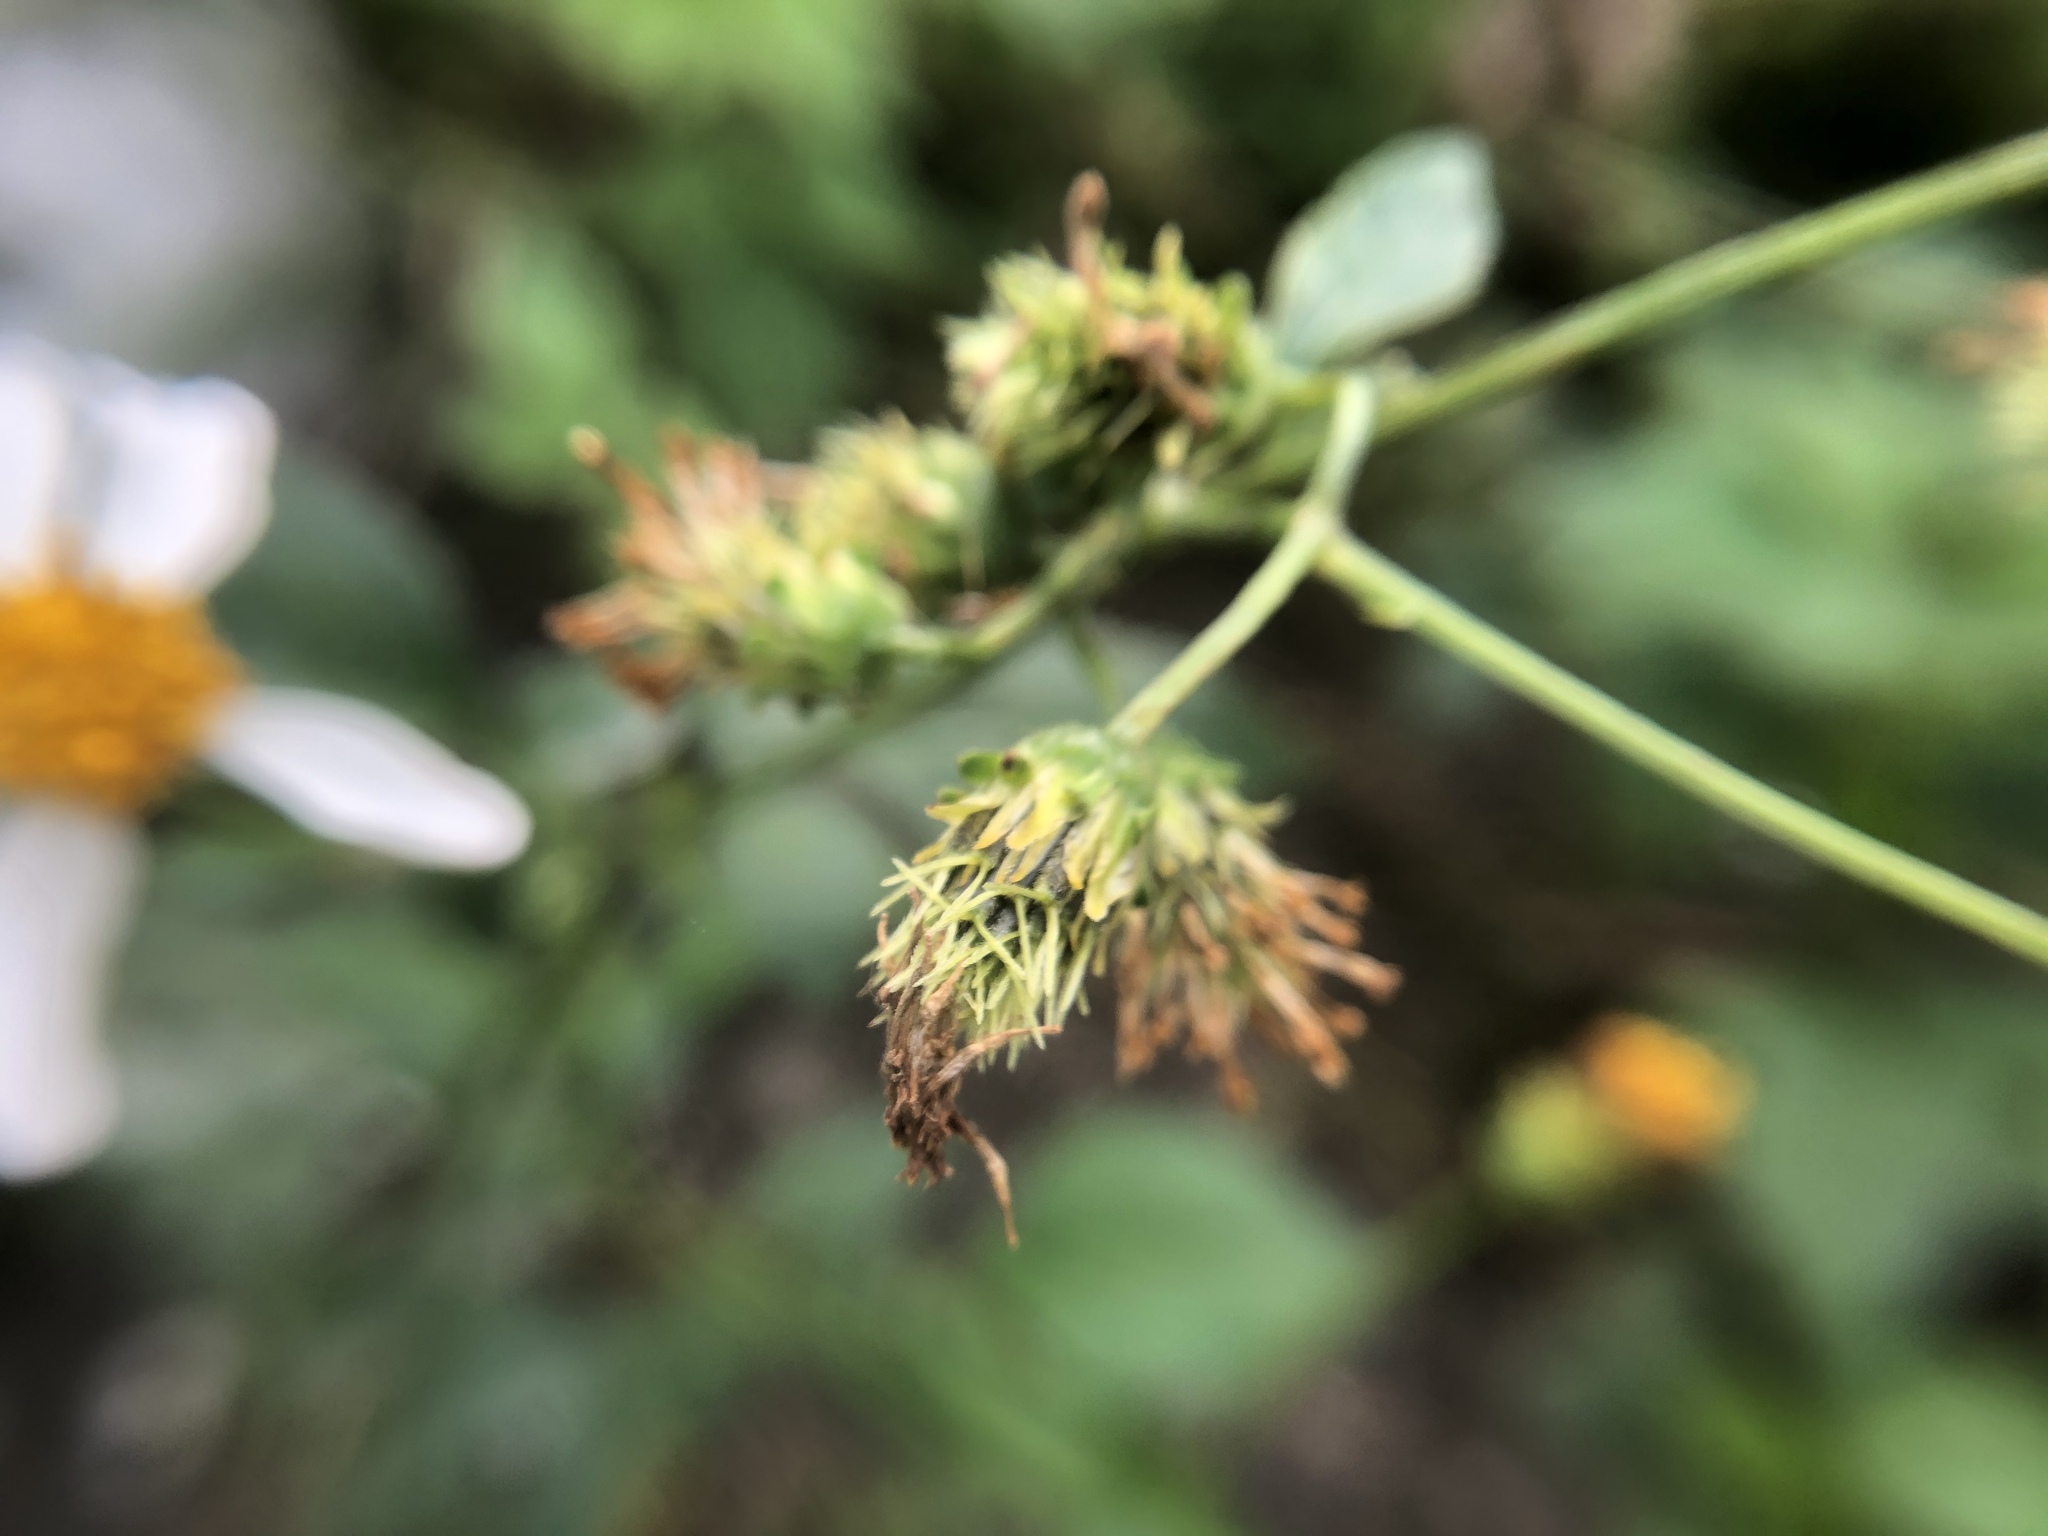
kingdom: Plantae
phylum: Tracheophyta
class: Magnoliopsida
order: Asterales
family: Asteraceae
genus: Bidens
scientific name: Bidens alba
